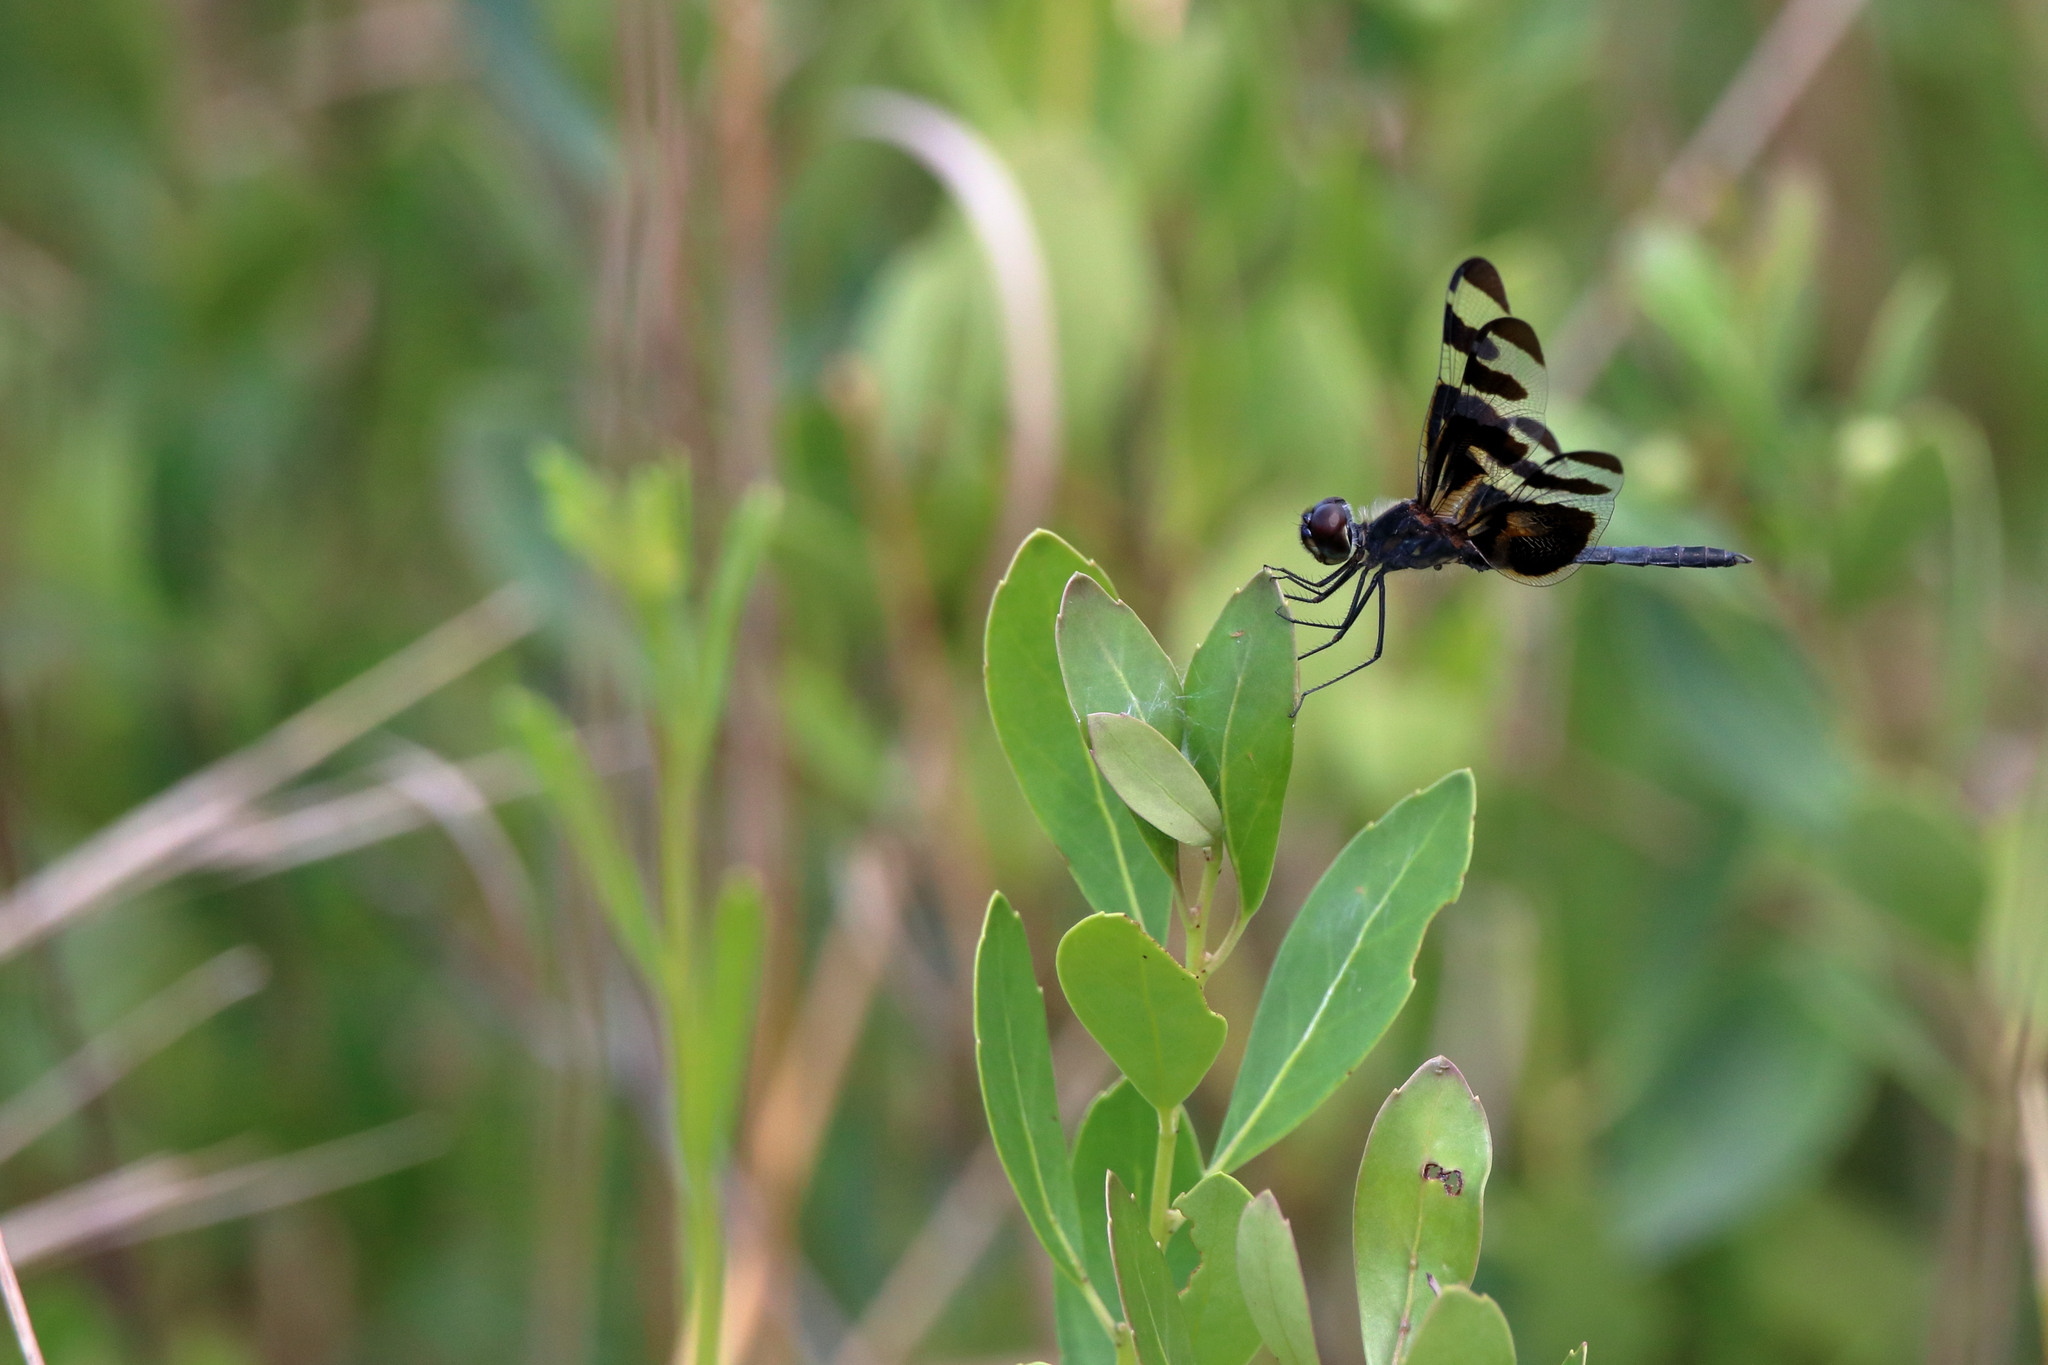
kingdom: Animalia
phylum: Arthropoda
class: Insecta
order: Odonata
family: Libellulidae
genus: Celithemis
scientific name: Celithemis fasciata
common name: Banded pennant
